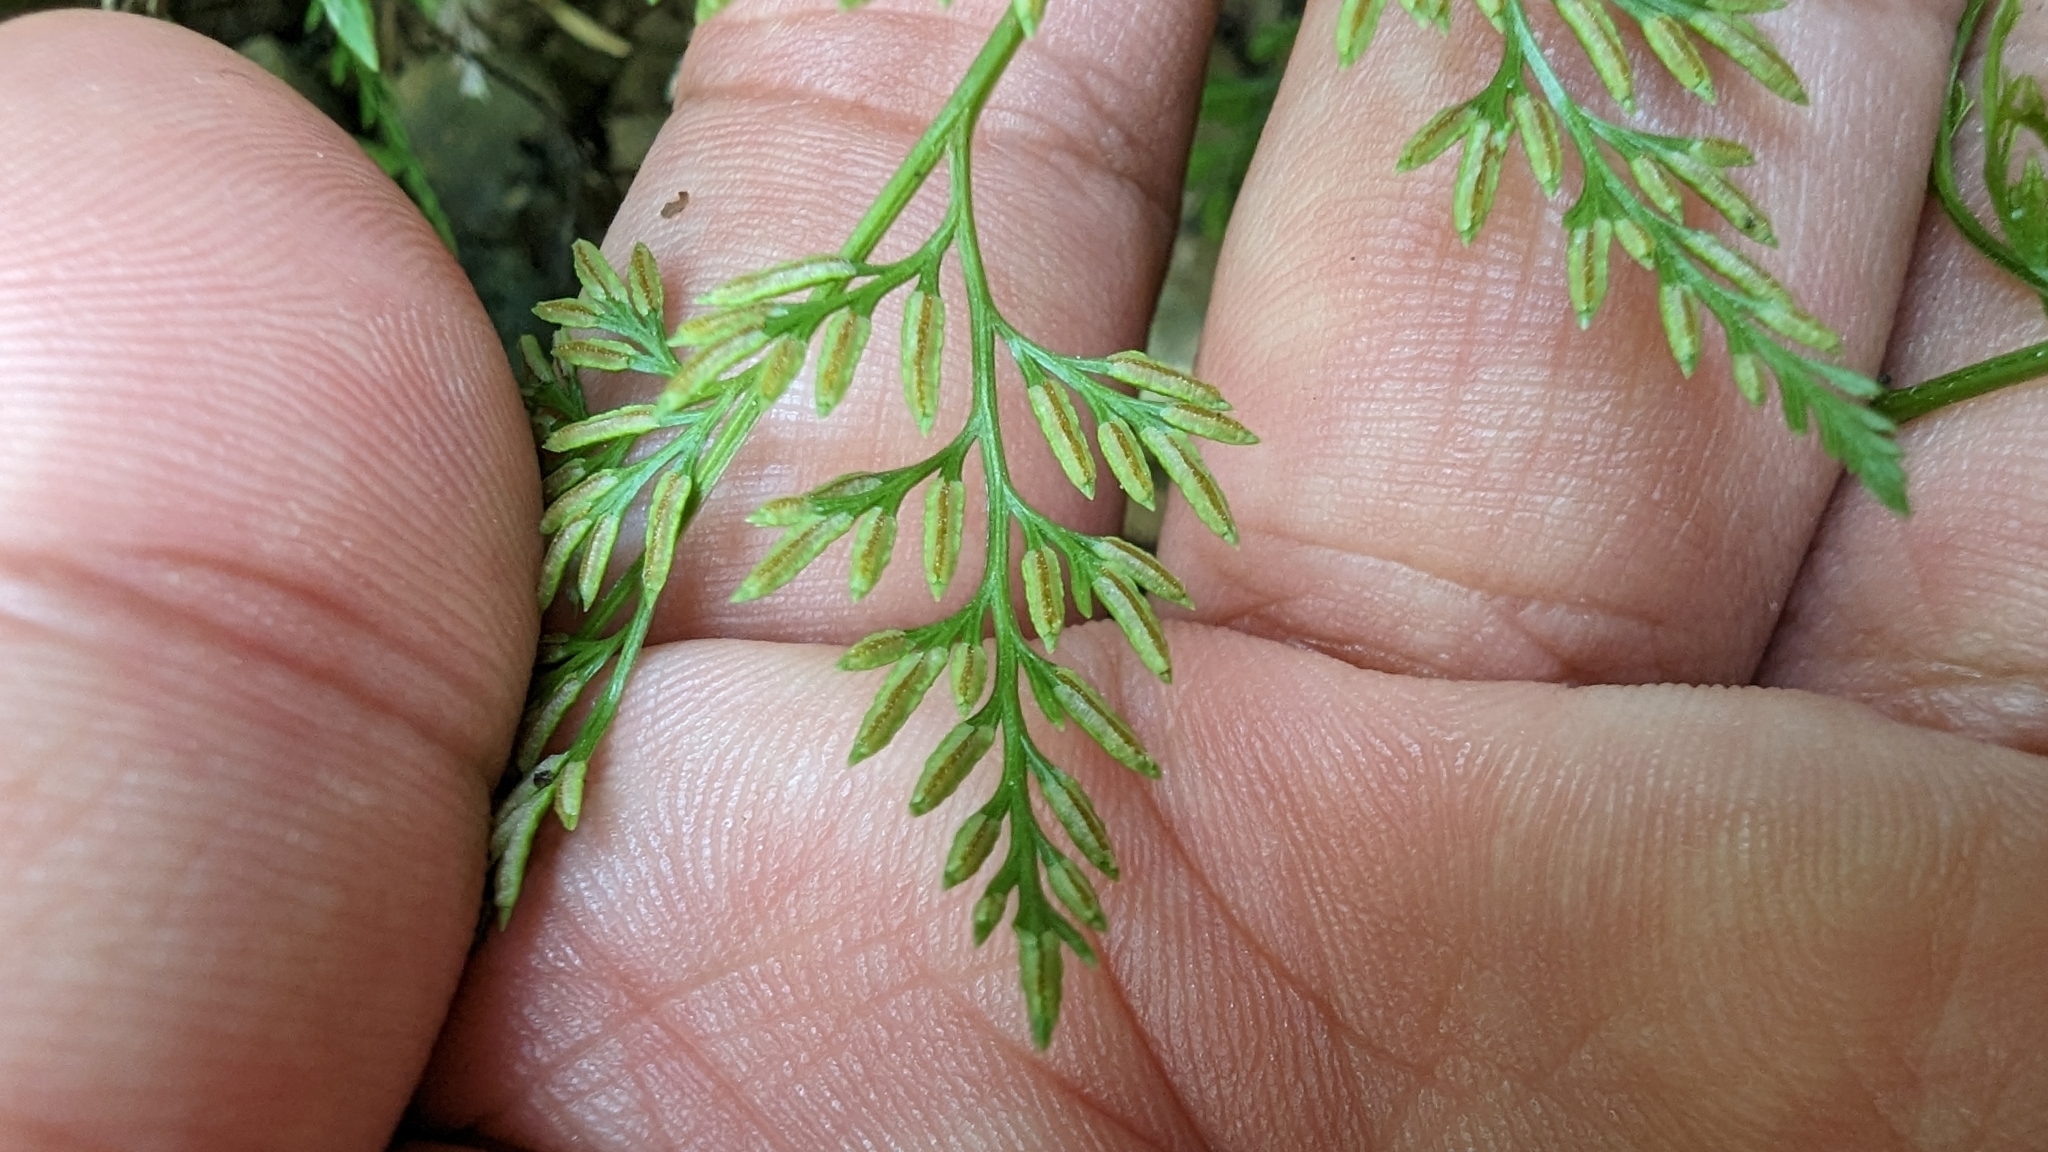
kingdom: Plantae
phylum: Tracheophyta
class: Polypodiopsida
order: Polypodiales
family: Pteridaceae
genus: Onychium
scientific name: Onychium japonicum
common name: Carrot fern
